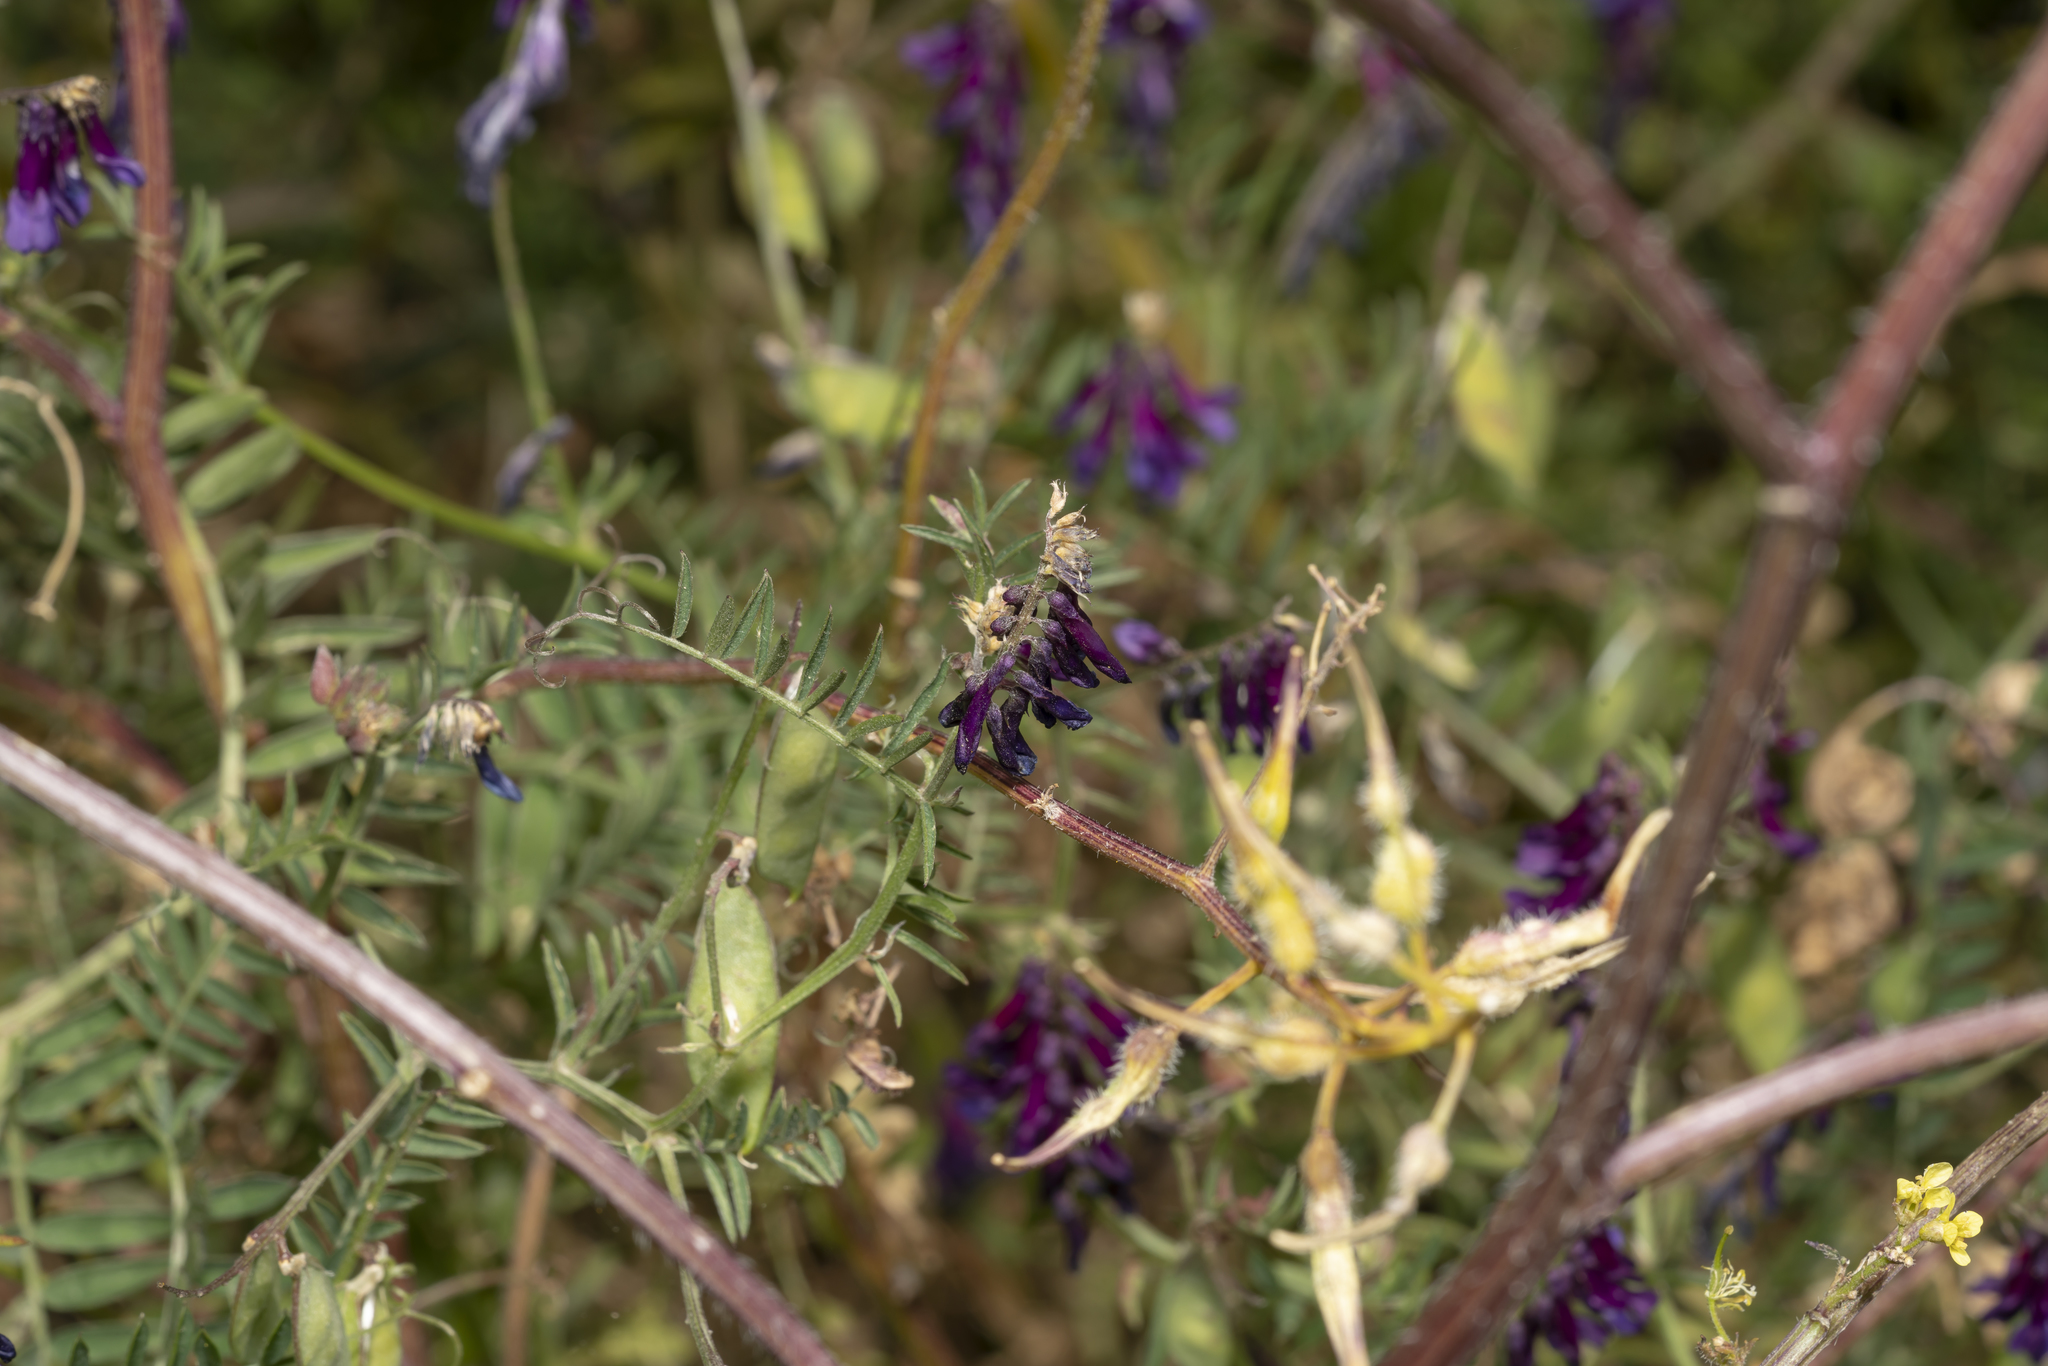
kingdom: Plantae
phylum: Tracheophyta
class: Magnoliopsida
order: Fabales
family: Fabaceae
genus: Vicia
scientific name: Vicia eriocarpa
